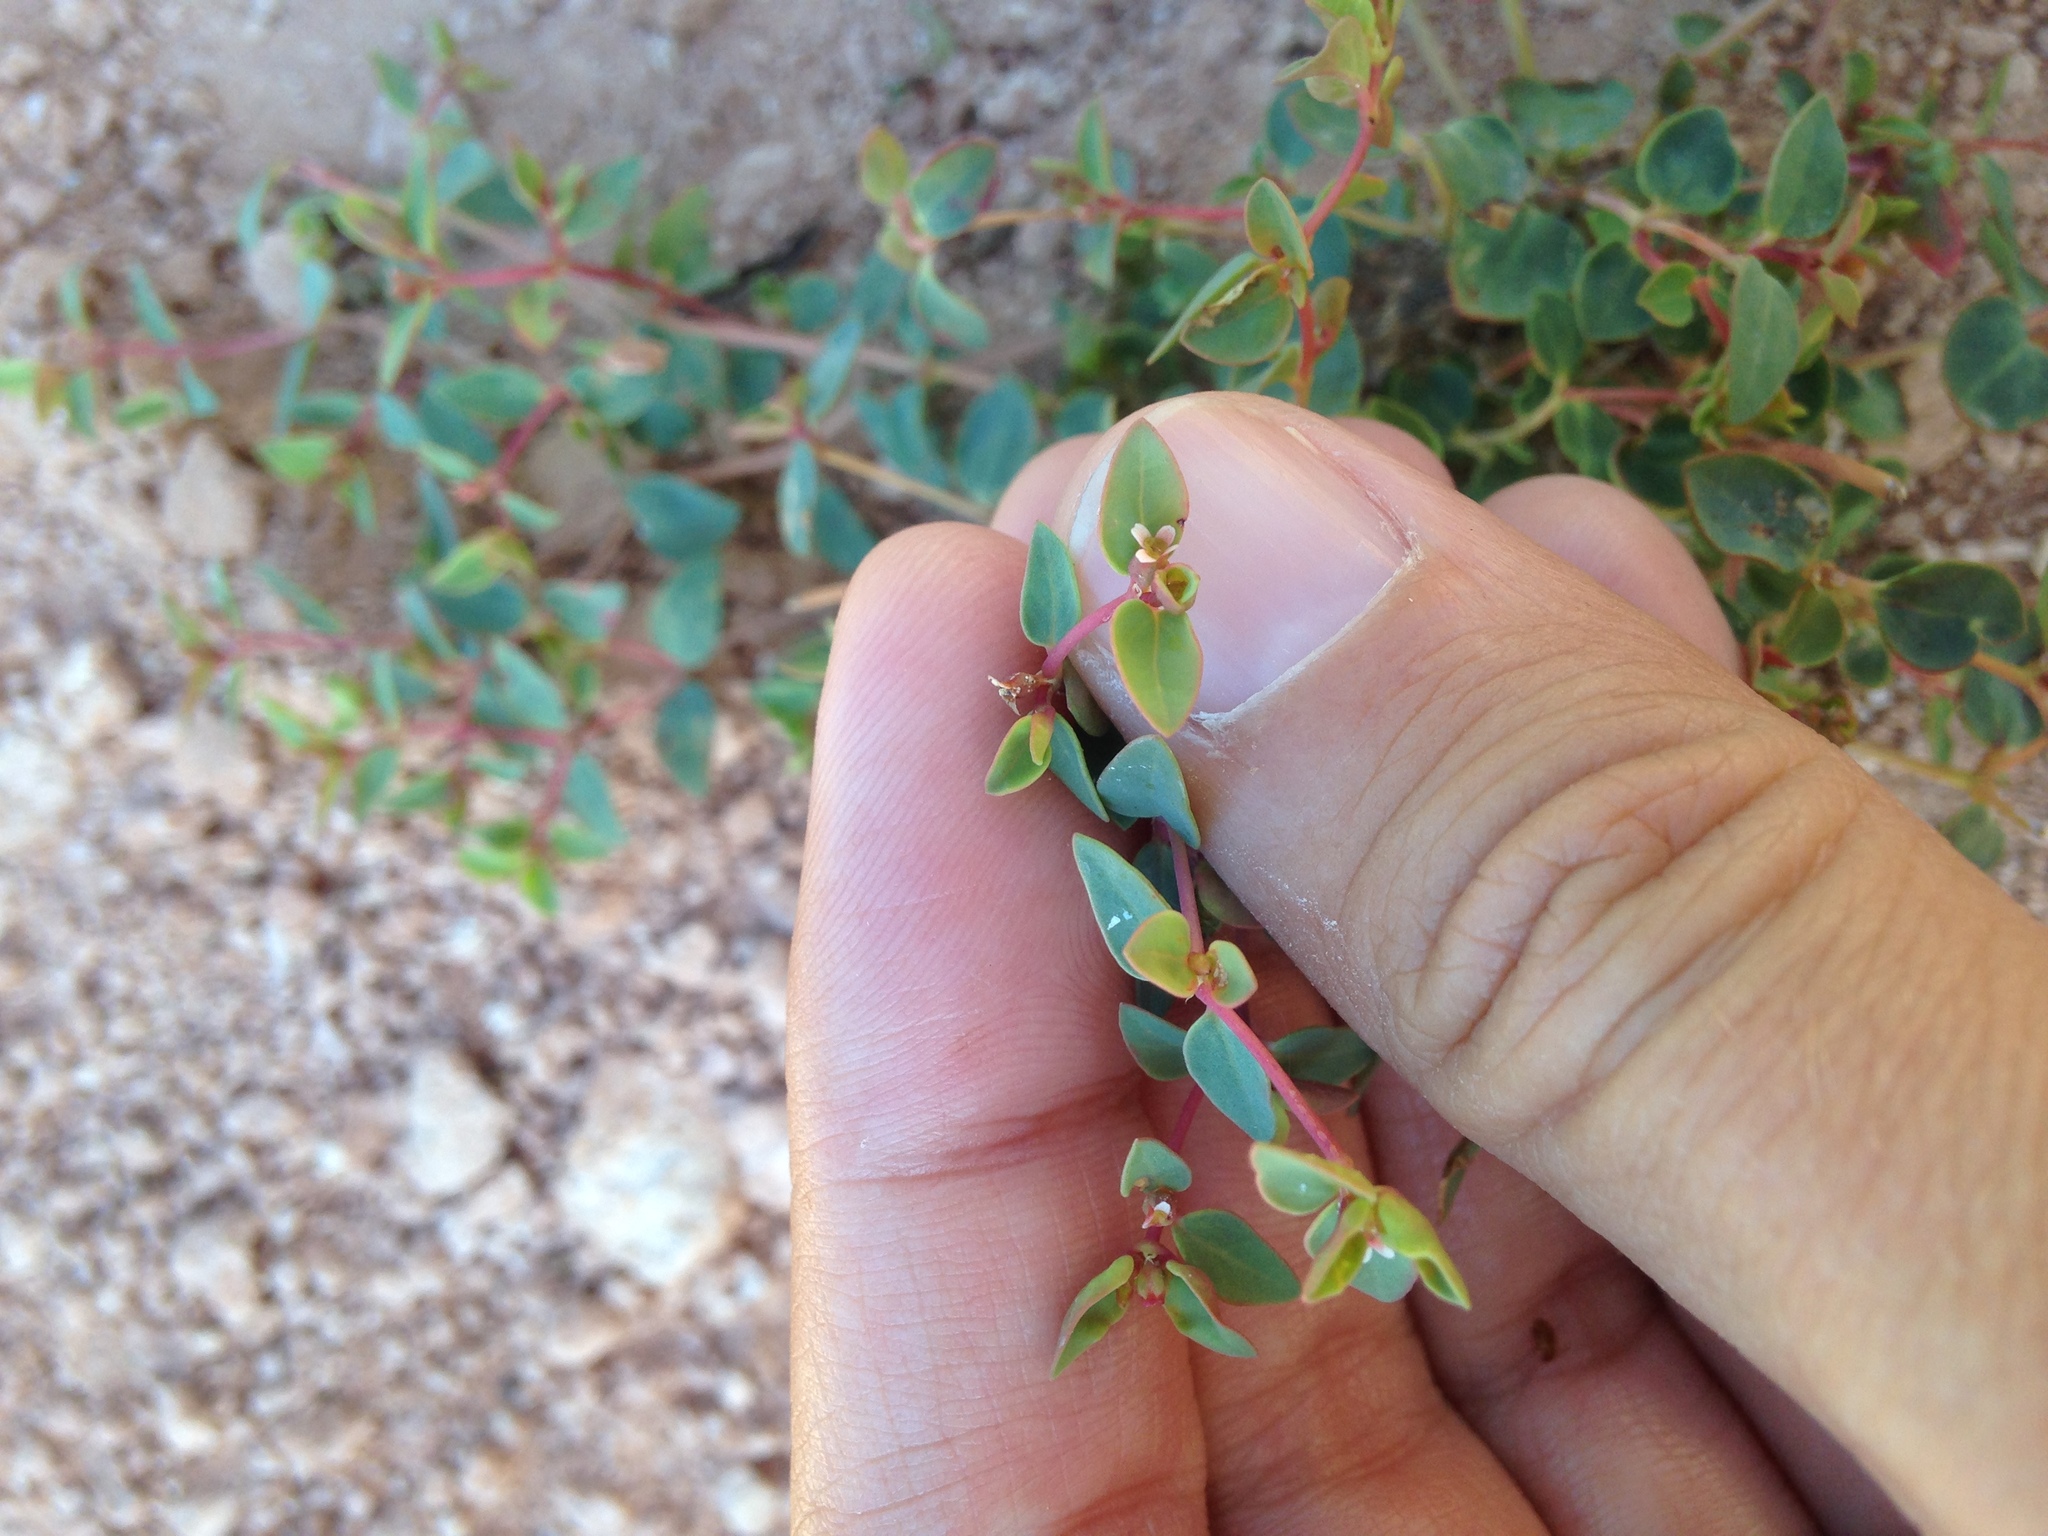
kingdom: Plantae
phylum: Tracheophyta
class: Magnoliopsida
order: Malpighiales
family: Euphorbiaceae
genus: Euphorbia
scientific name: Euphorbia fendleri
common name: Fendler's euphorbia
